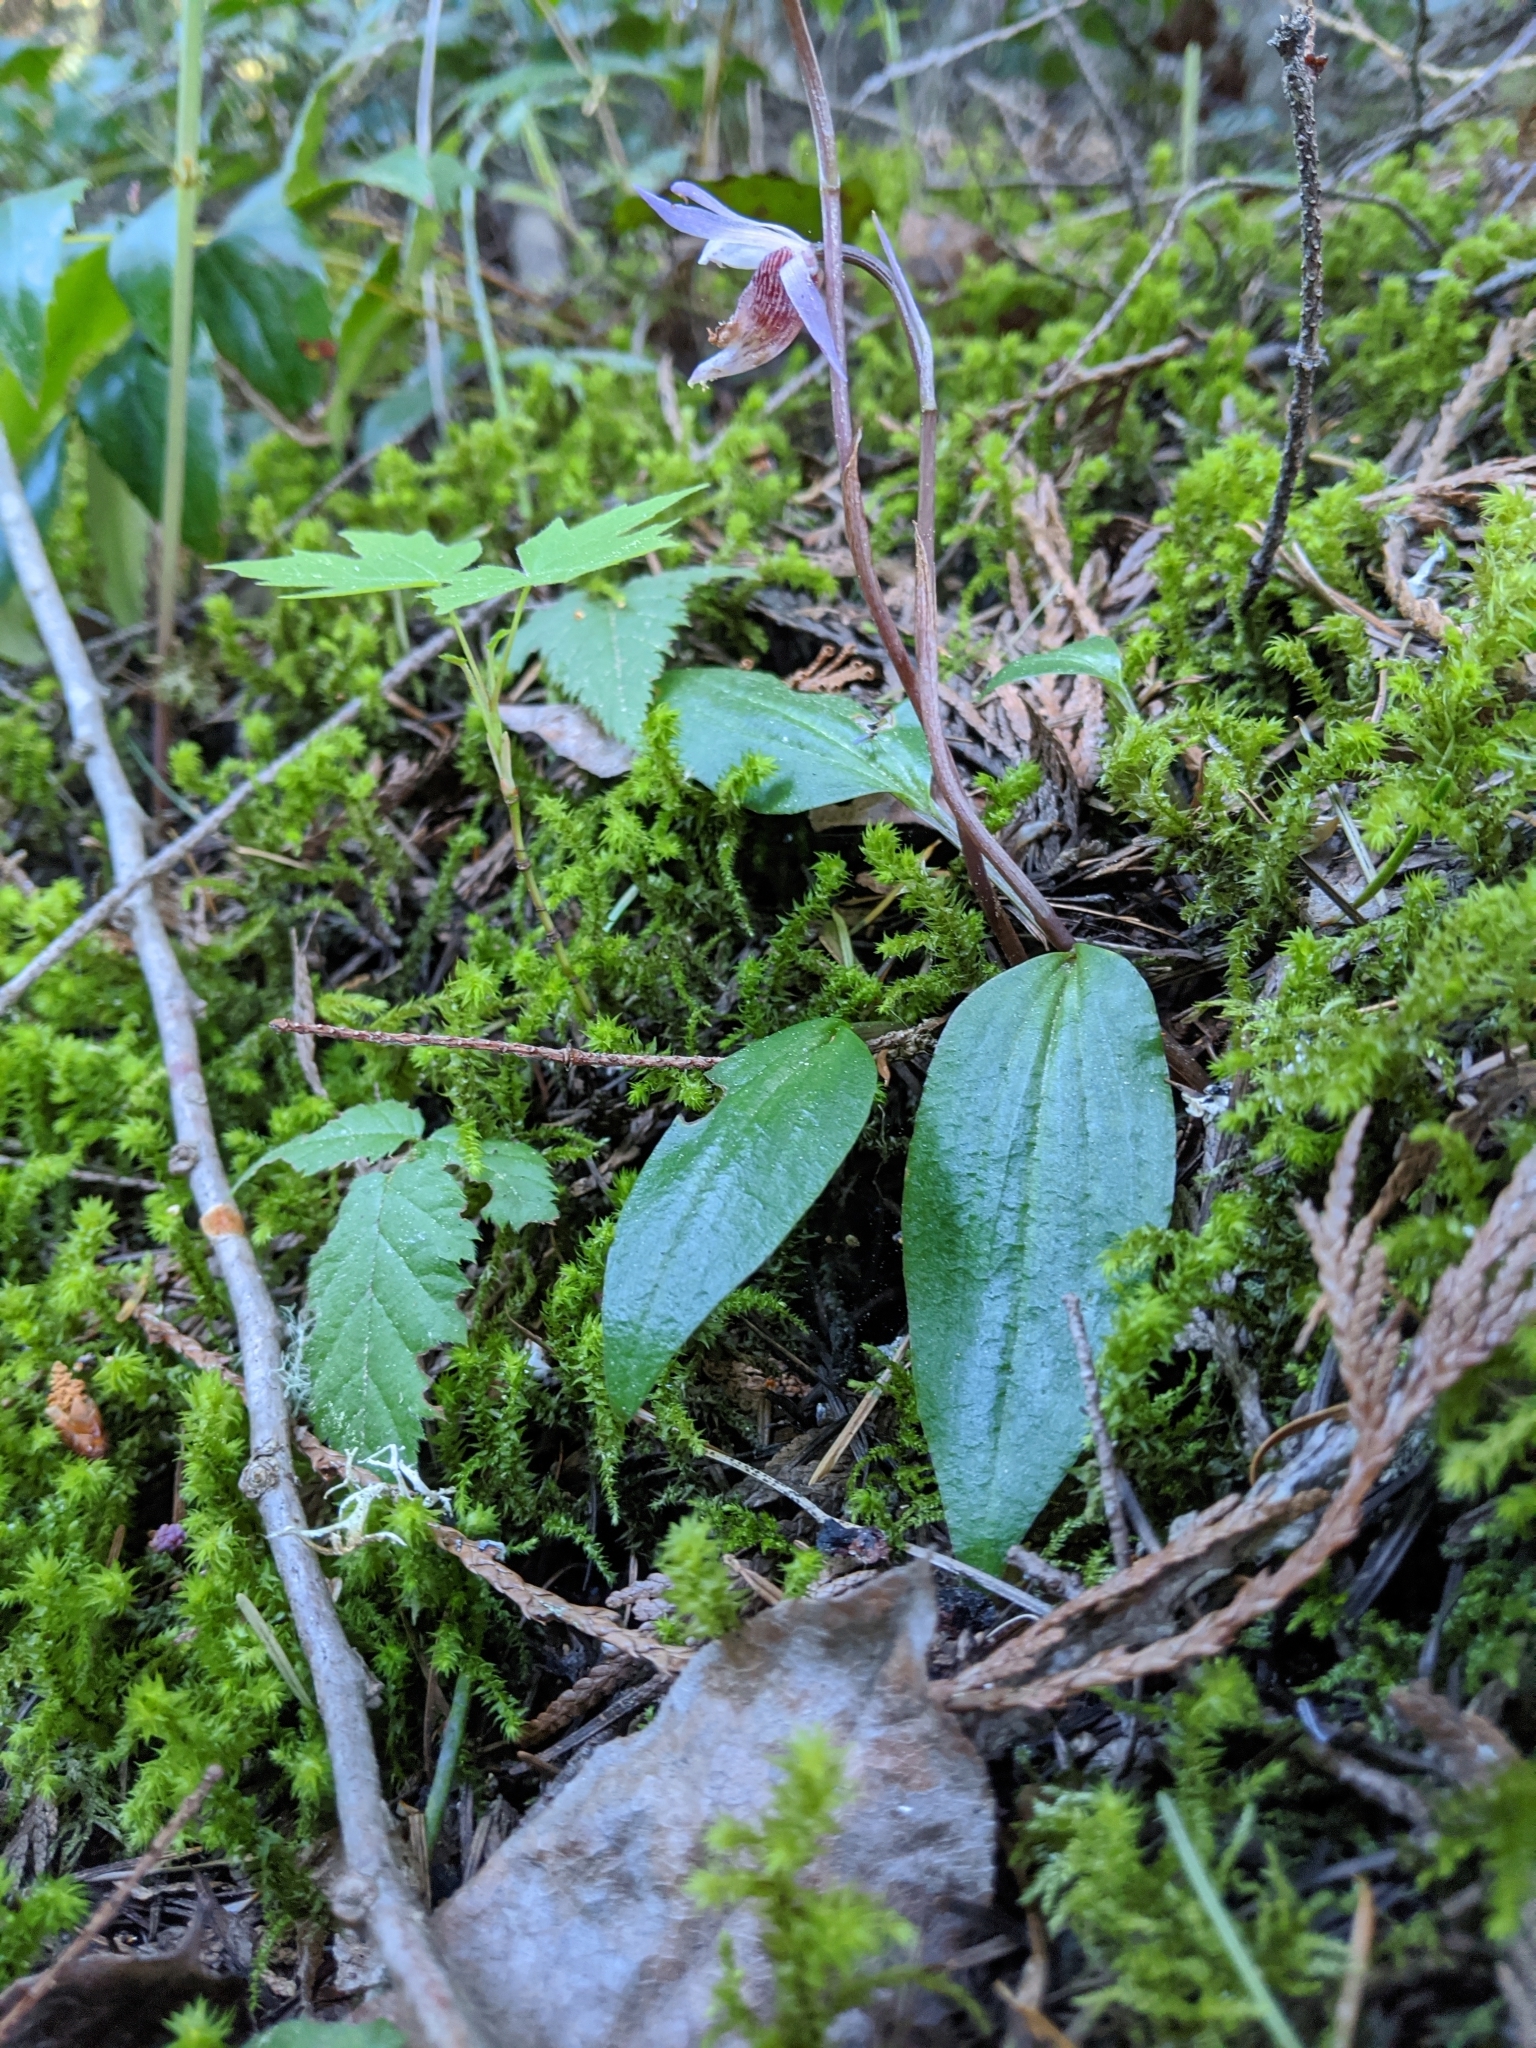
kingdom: Plantae
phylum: Tracheophyta
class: Liliopsida
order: Asparagales
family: Orchidaceae
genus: Calypso
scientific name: Calypso bulbosa
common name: Calypso
